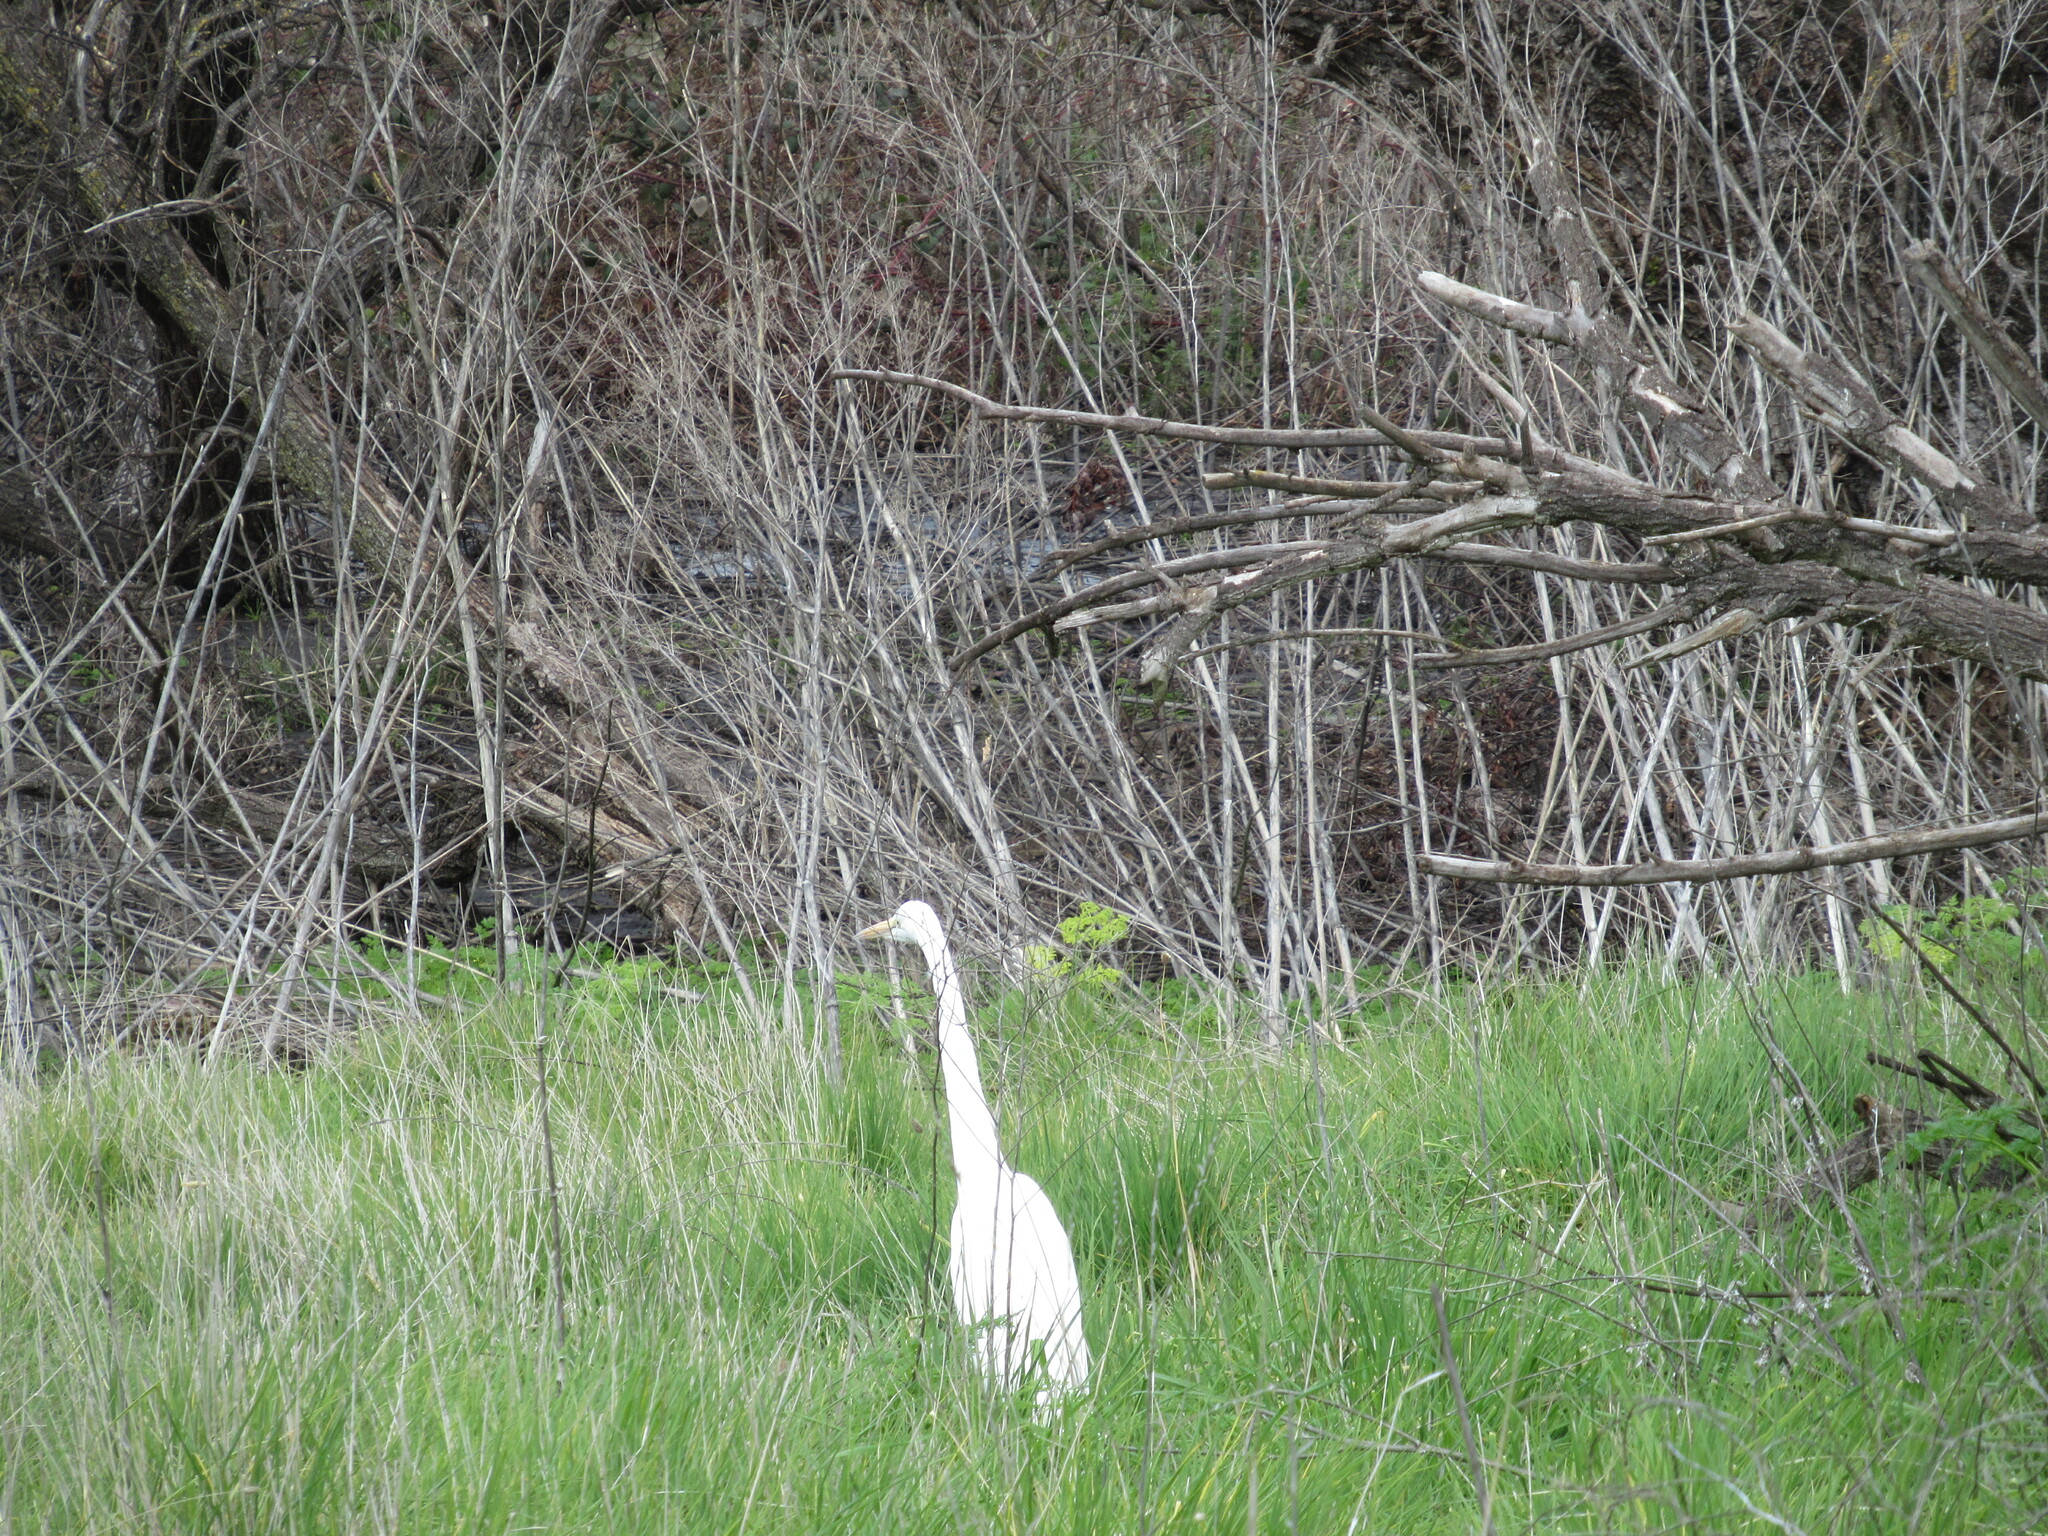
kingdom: Animalia
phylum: Chordata
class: Aves
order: Pelecaniformes
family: Ardeidae
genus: Ardea
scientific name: Ardea alba
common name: Great egret
